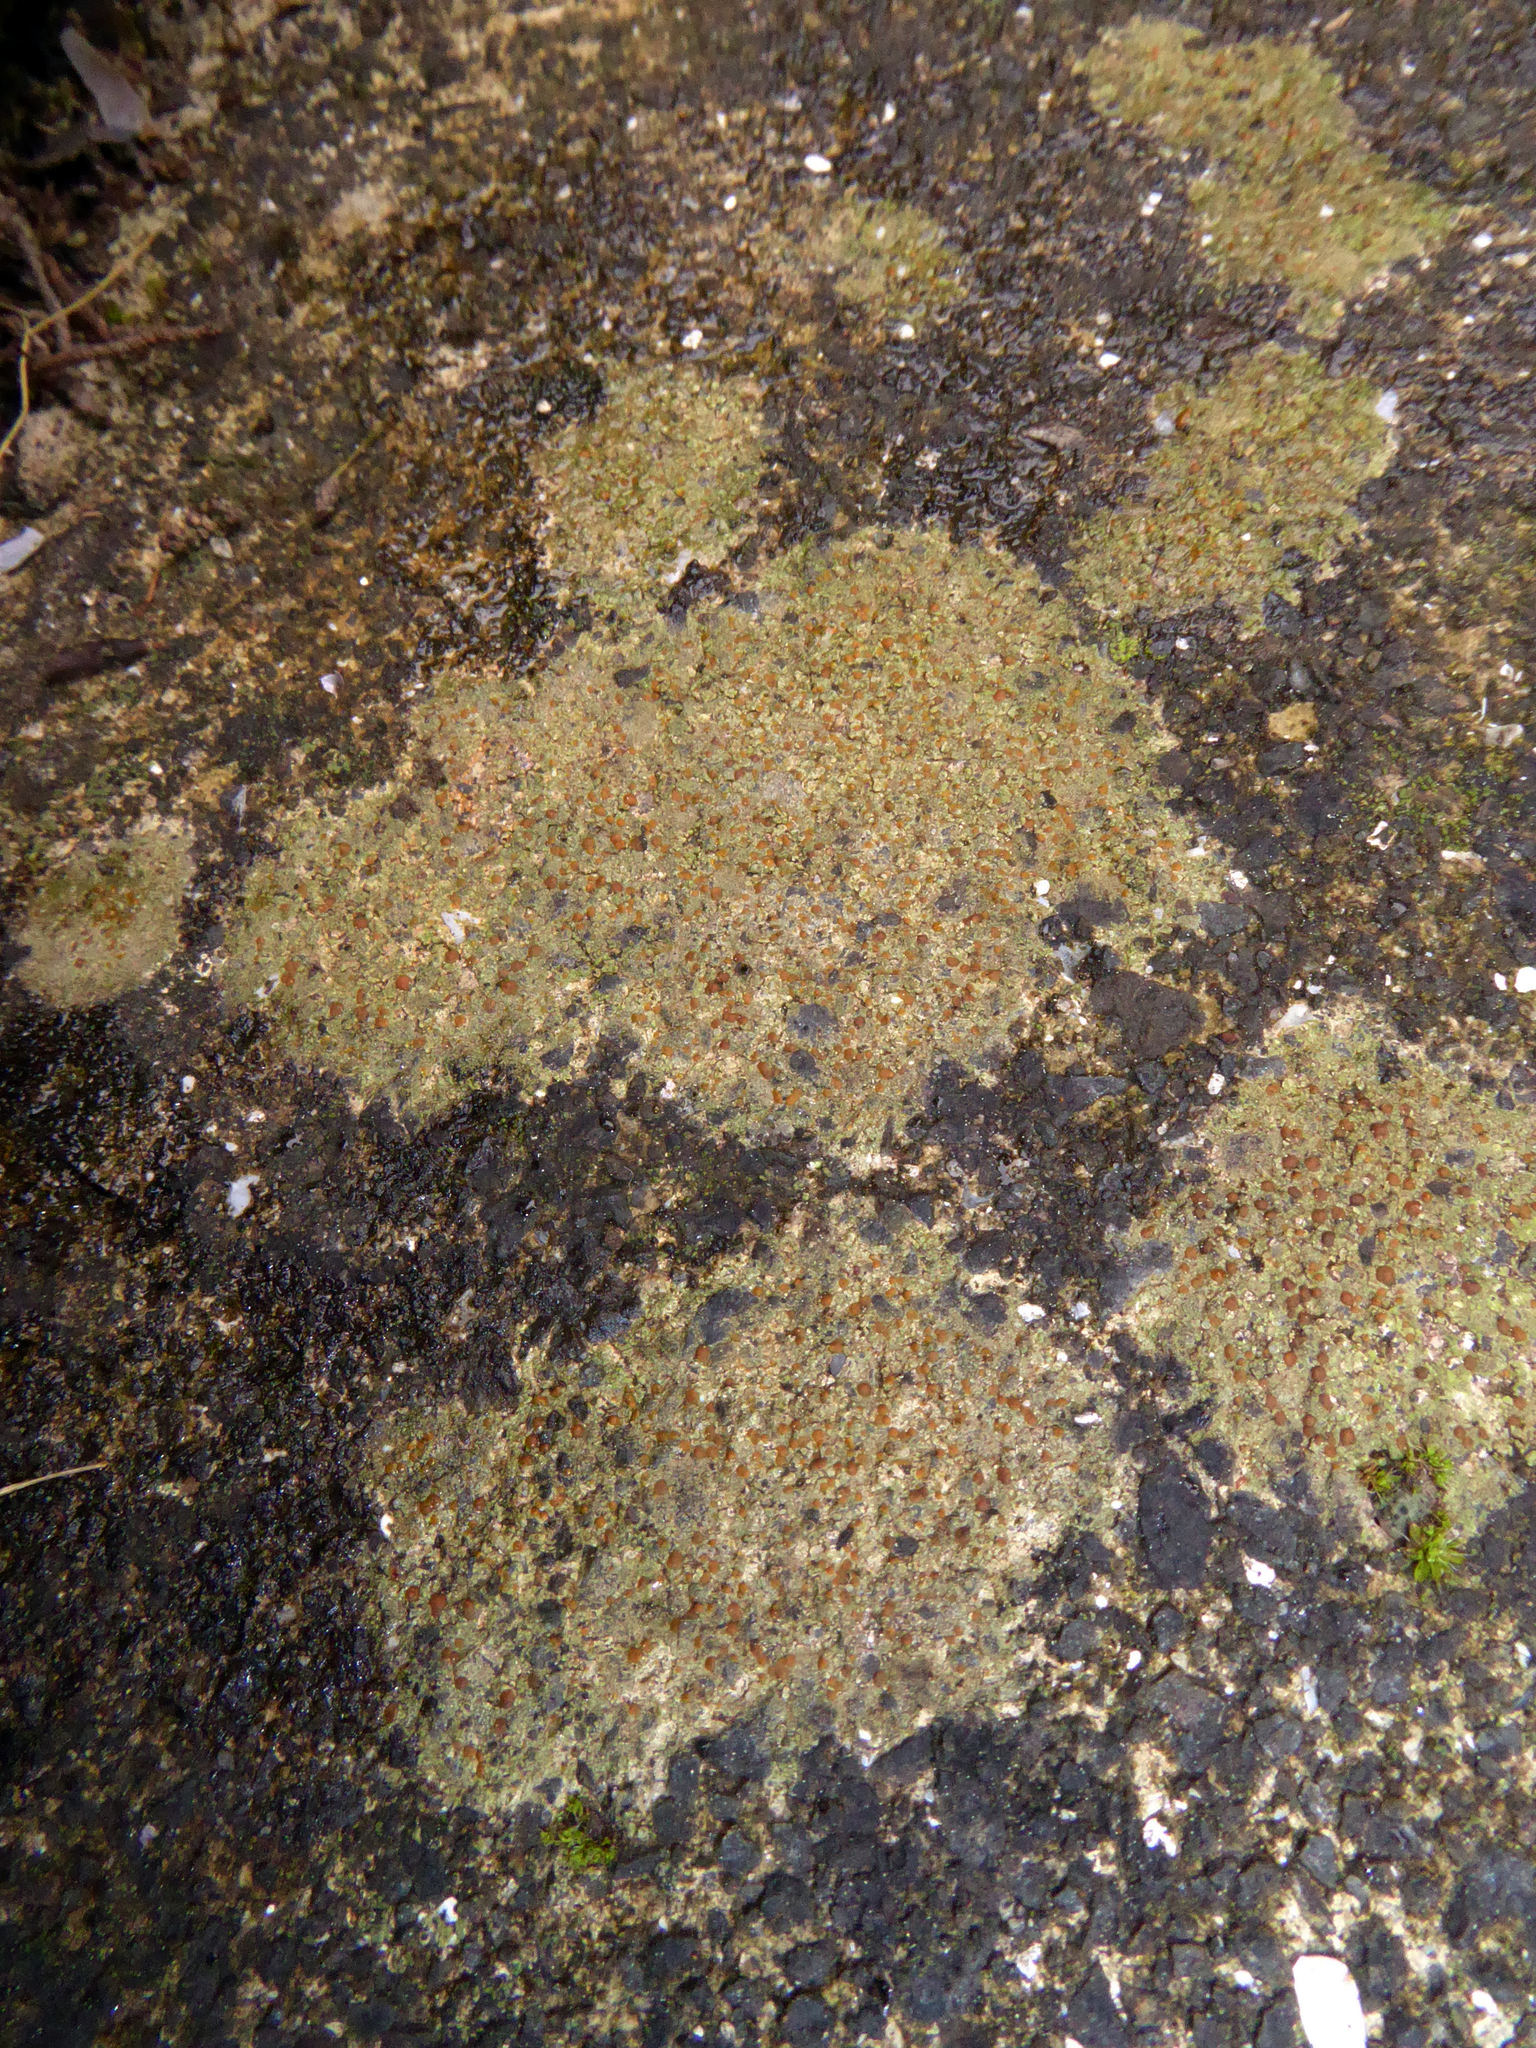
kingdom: Fungi
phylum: Ascomycota
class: Lecanoromycetes
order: Lecanorales
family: Psoraceae
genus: Protoblastenia
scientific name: Protoblastenia rupestris
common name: Chewing gum lichen
